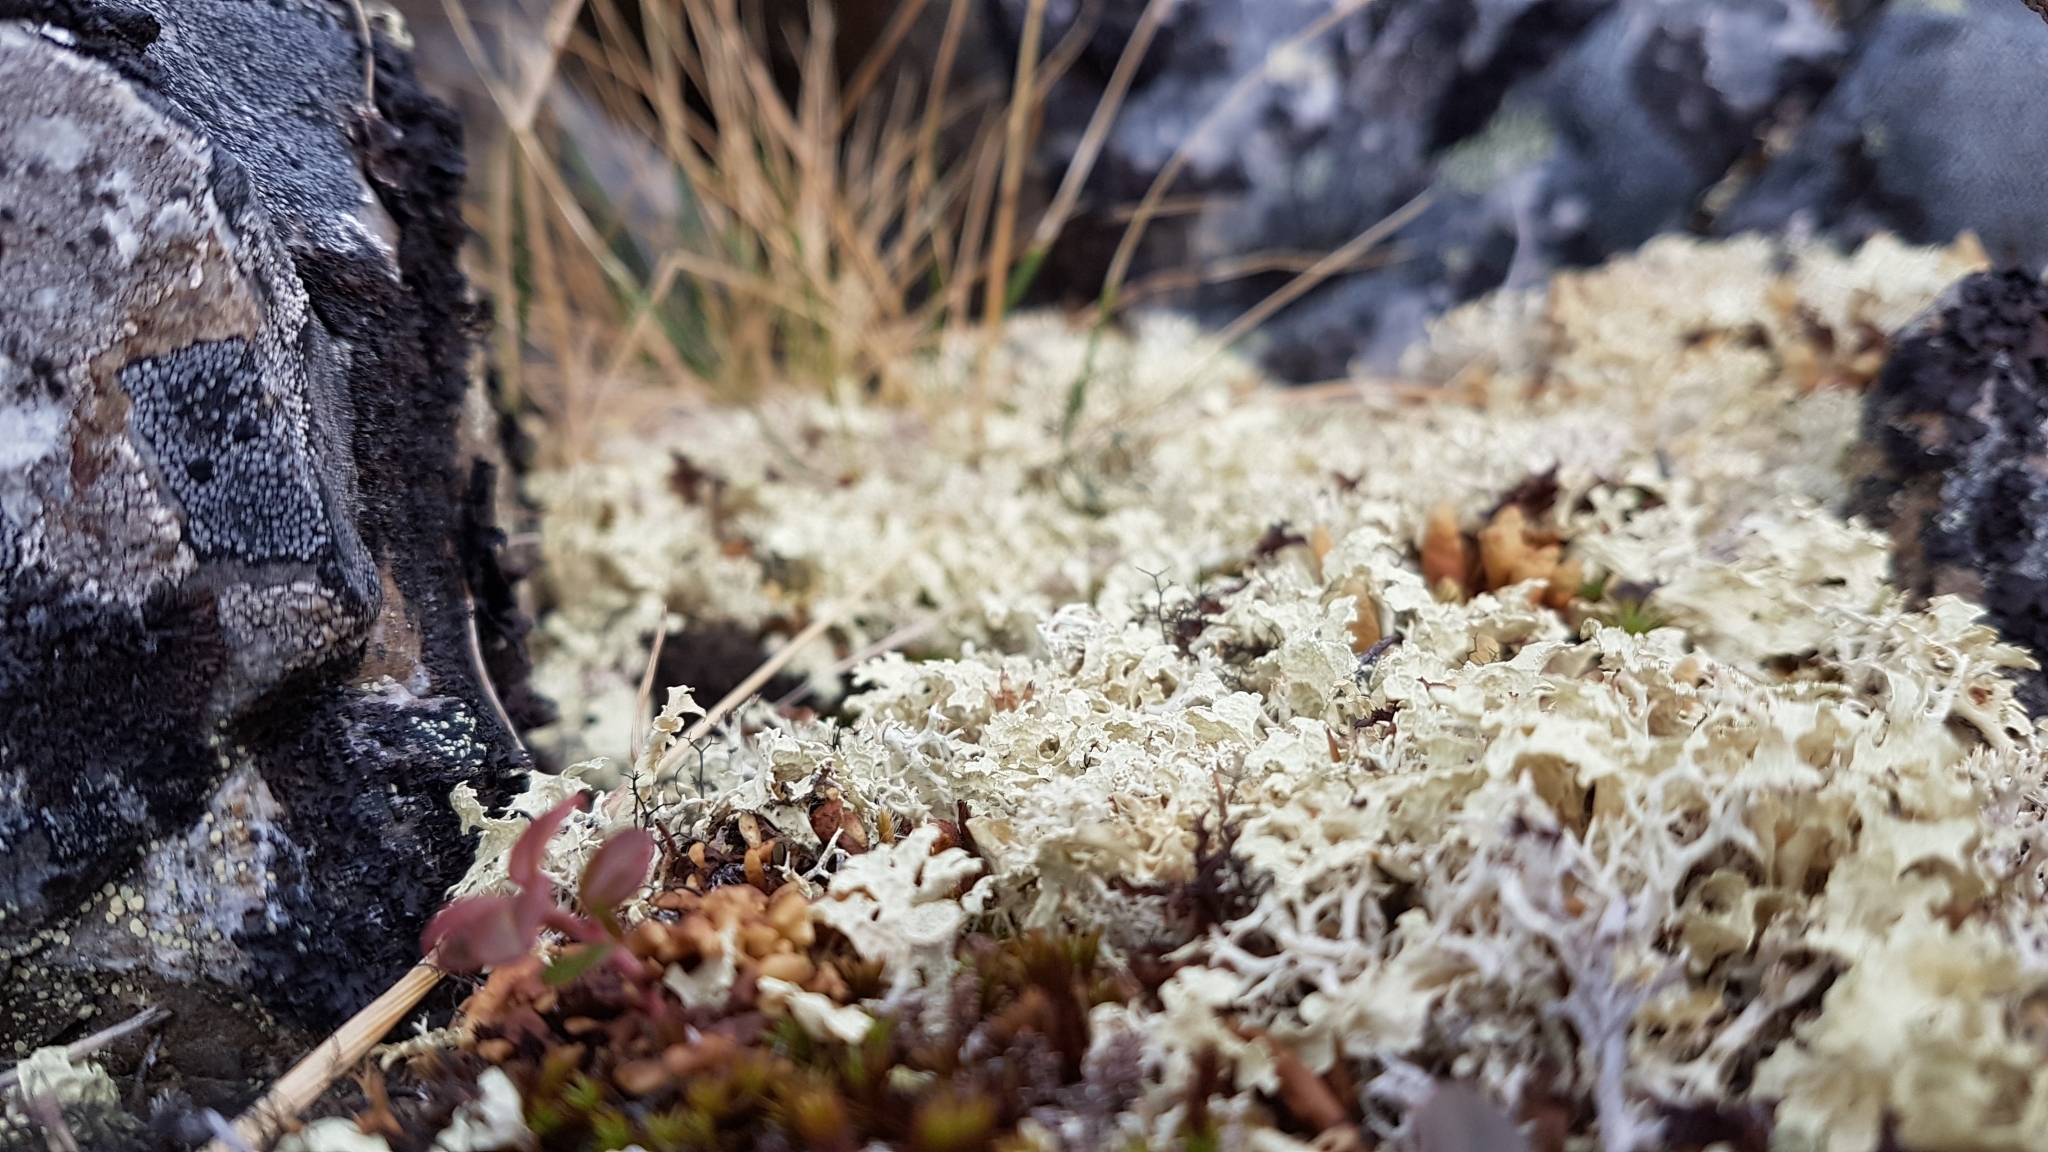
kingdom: Fungi
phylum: Ascomycota
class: Lecanoromycetes
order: Lecanorales
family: Parmeliaceae
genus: Nephromopsis
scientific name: Nephromopsis nivalis
